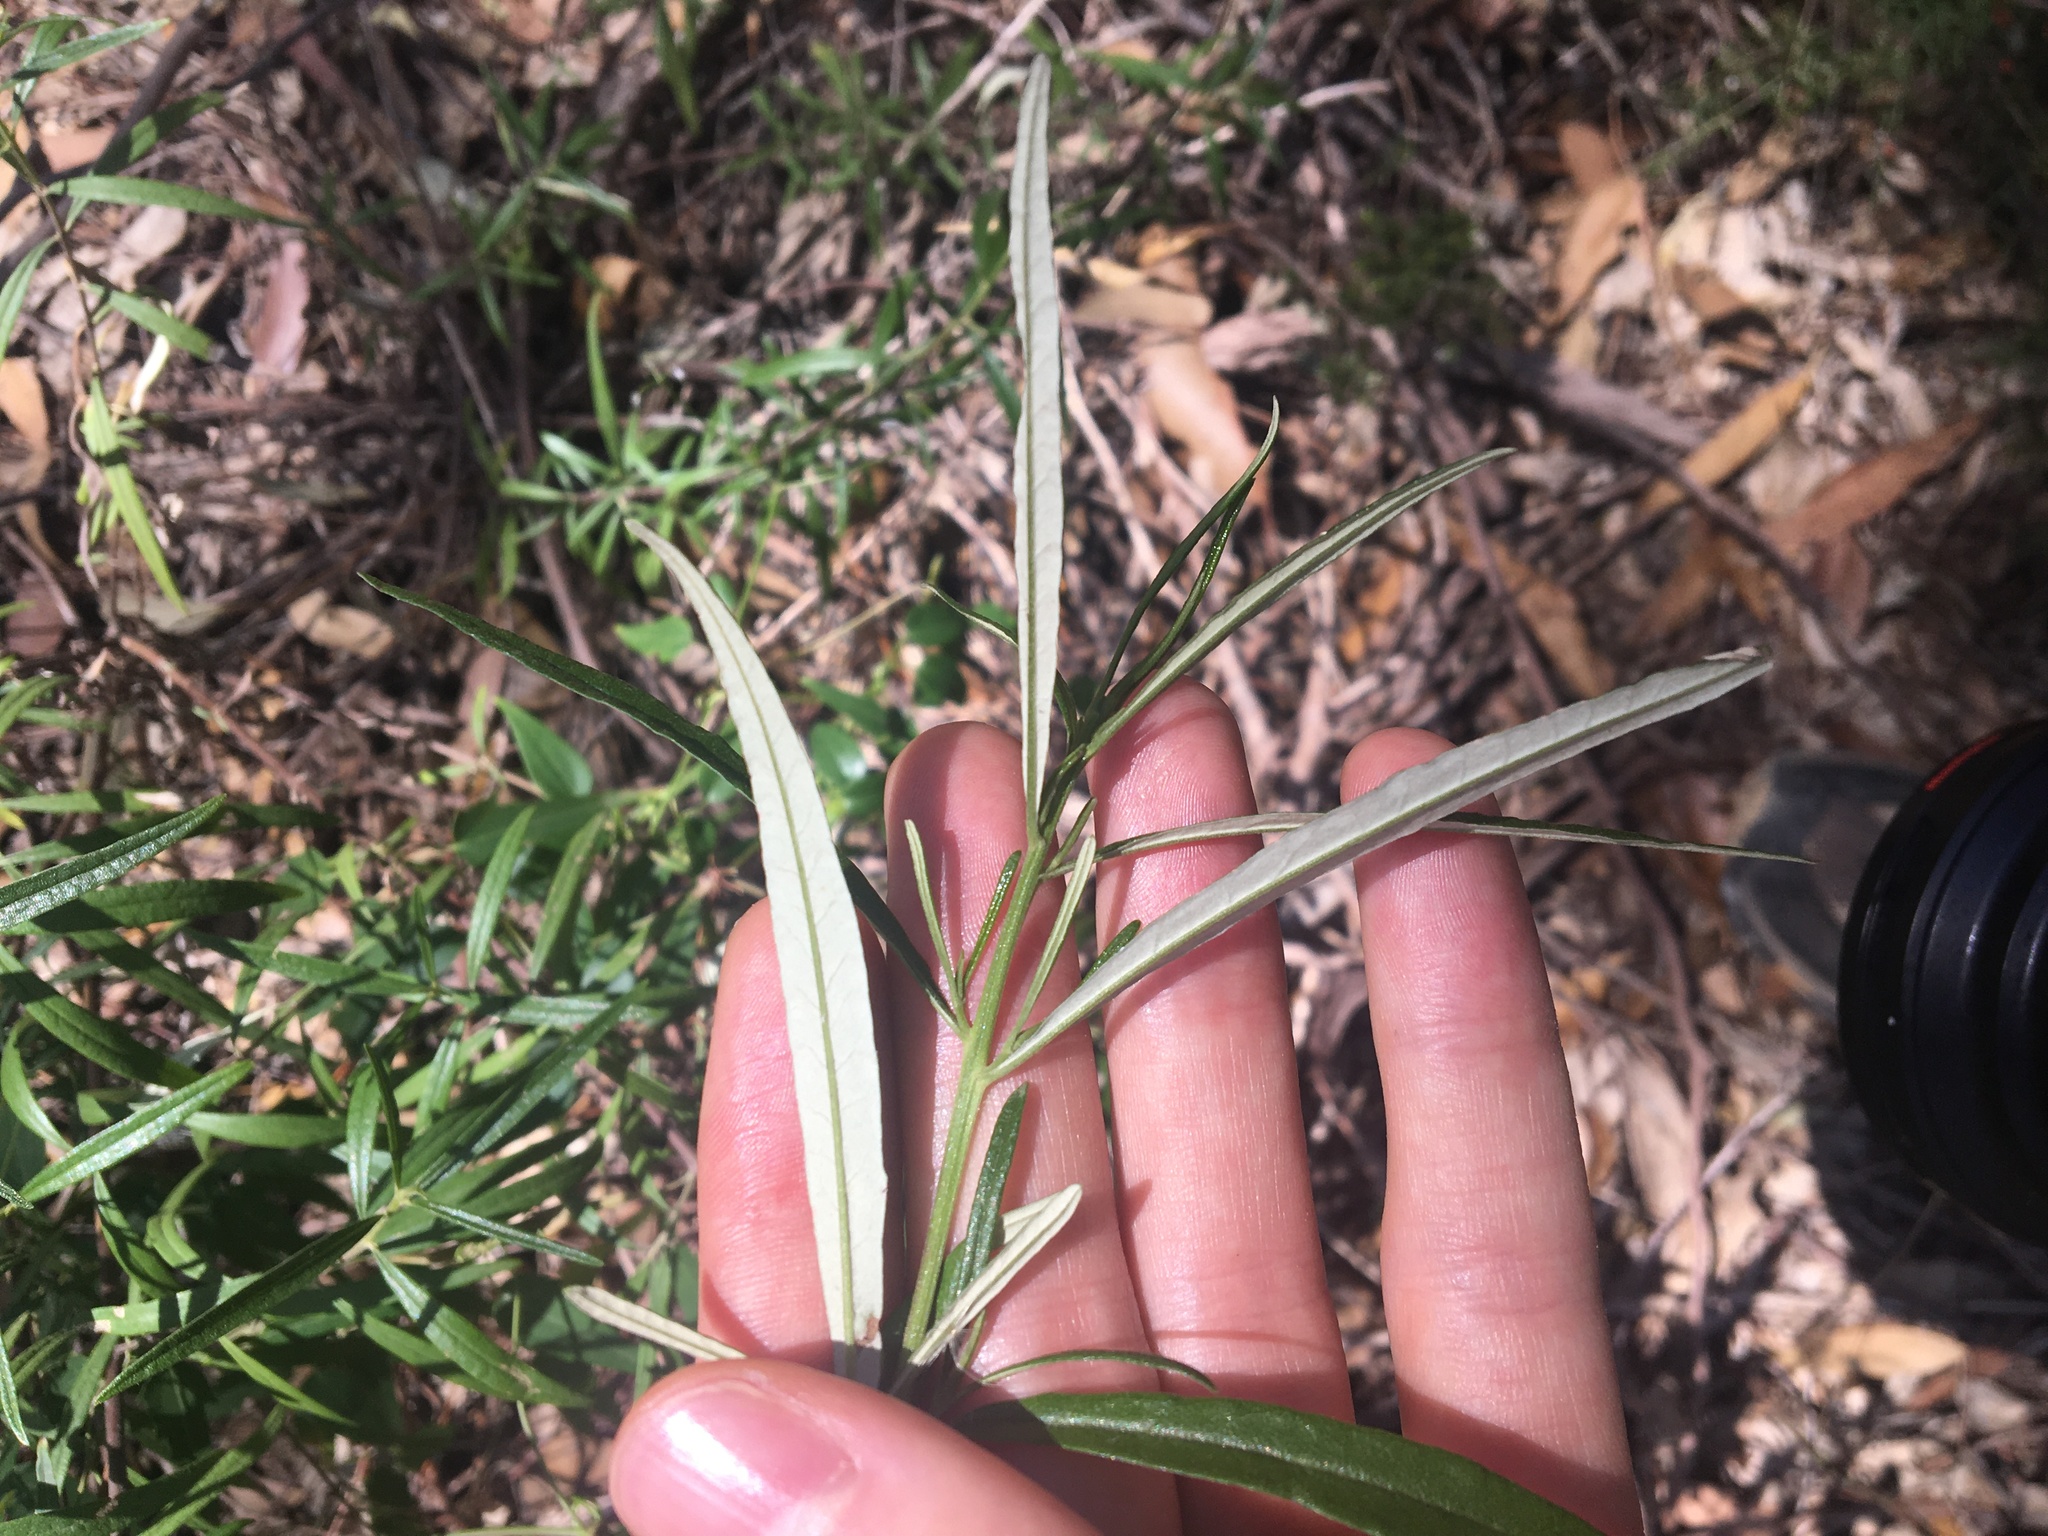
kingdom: Plantae
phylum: Tracheophyta
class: Magnoliopsida
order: Asterales
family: Asteraceae
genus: Olearia
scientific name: Olearia viscidula
